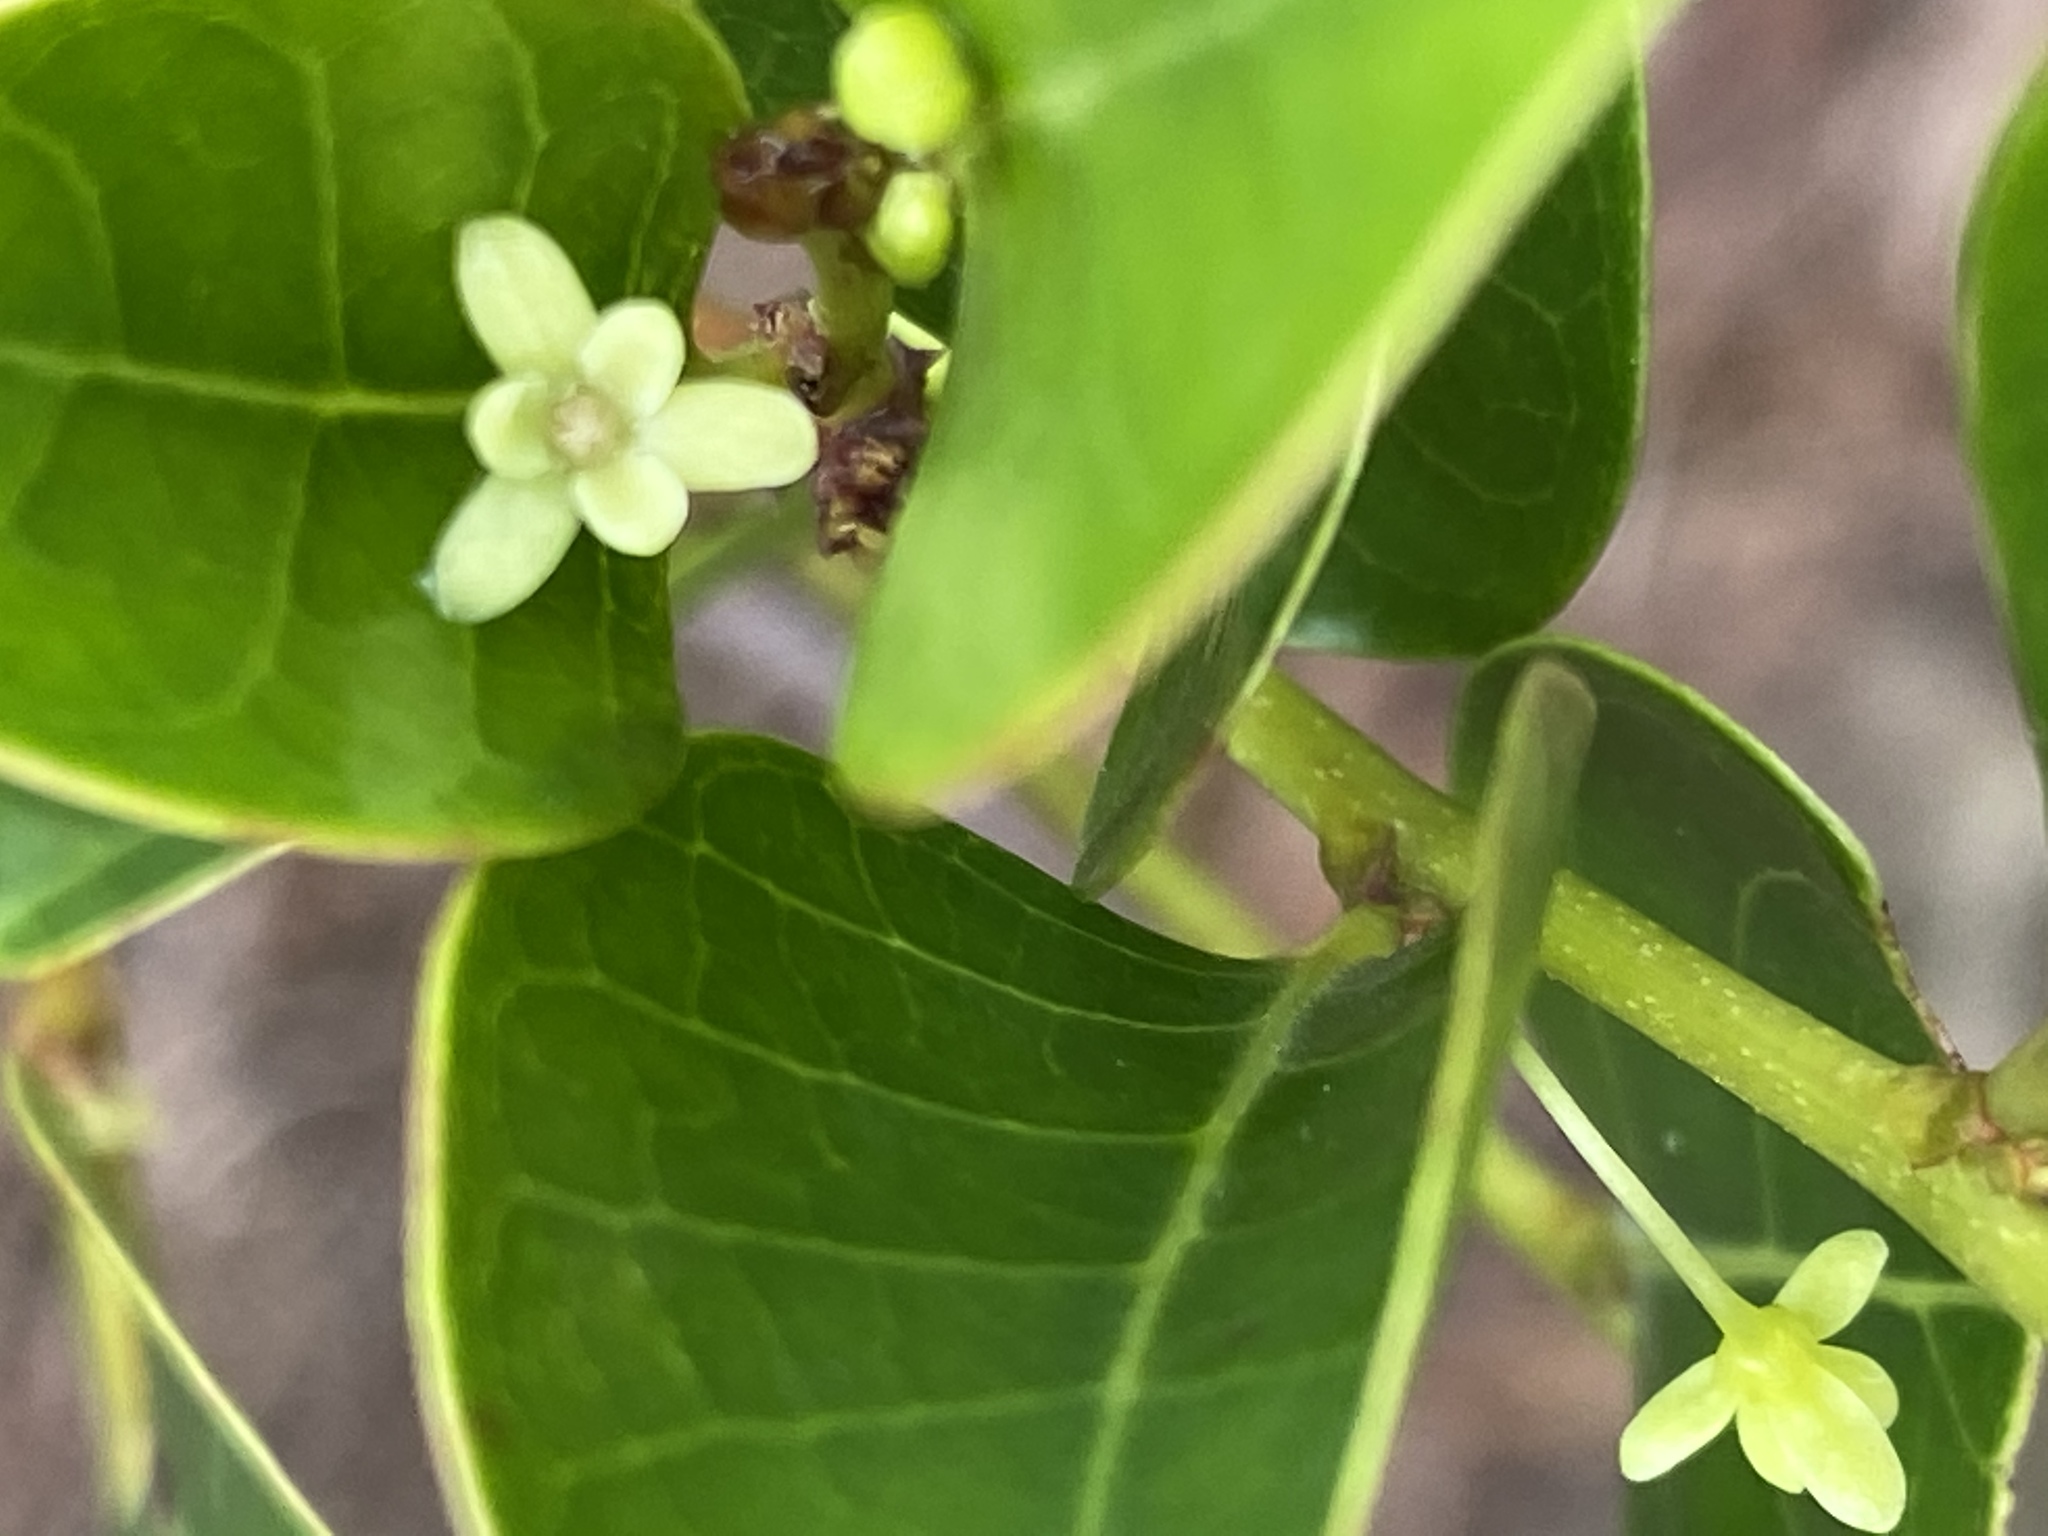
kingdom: Plantae
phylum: Tracheophyta
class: Magnoliopsida
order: Malpighiales
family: Phyllanthaceae
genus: Glochidion
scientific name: Glochidion rubrum
